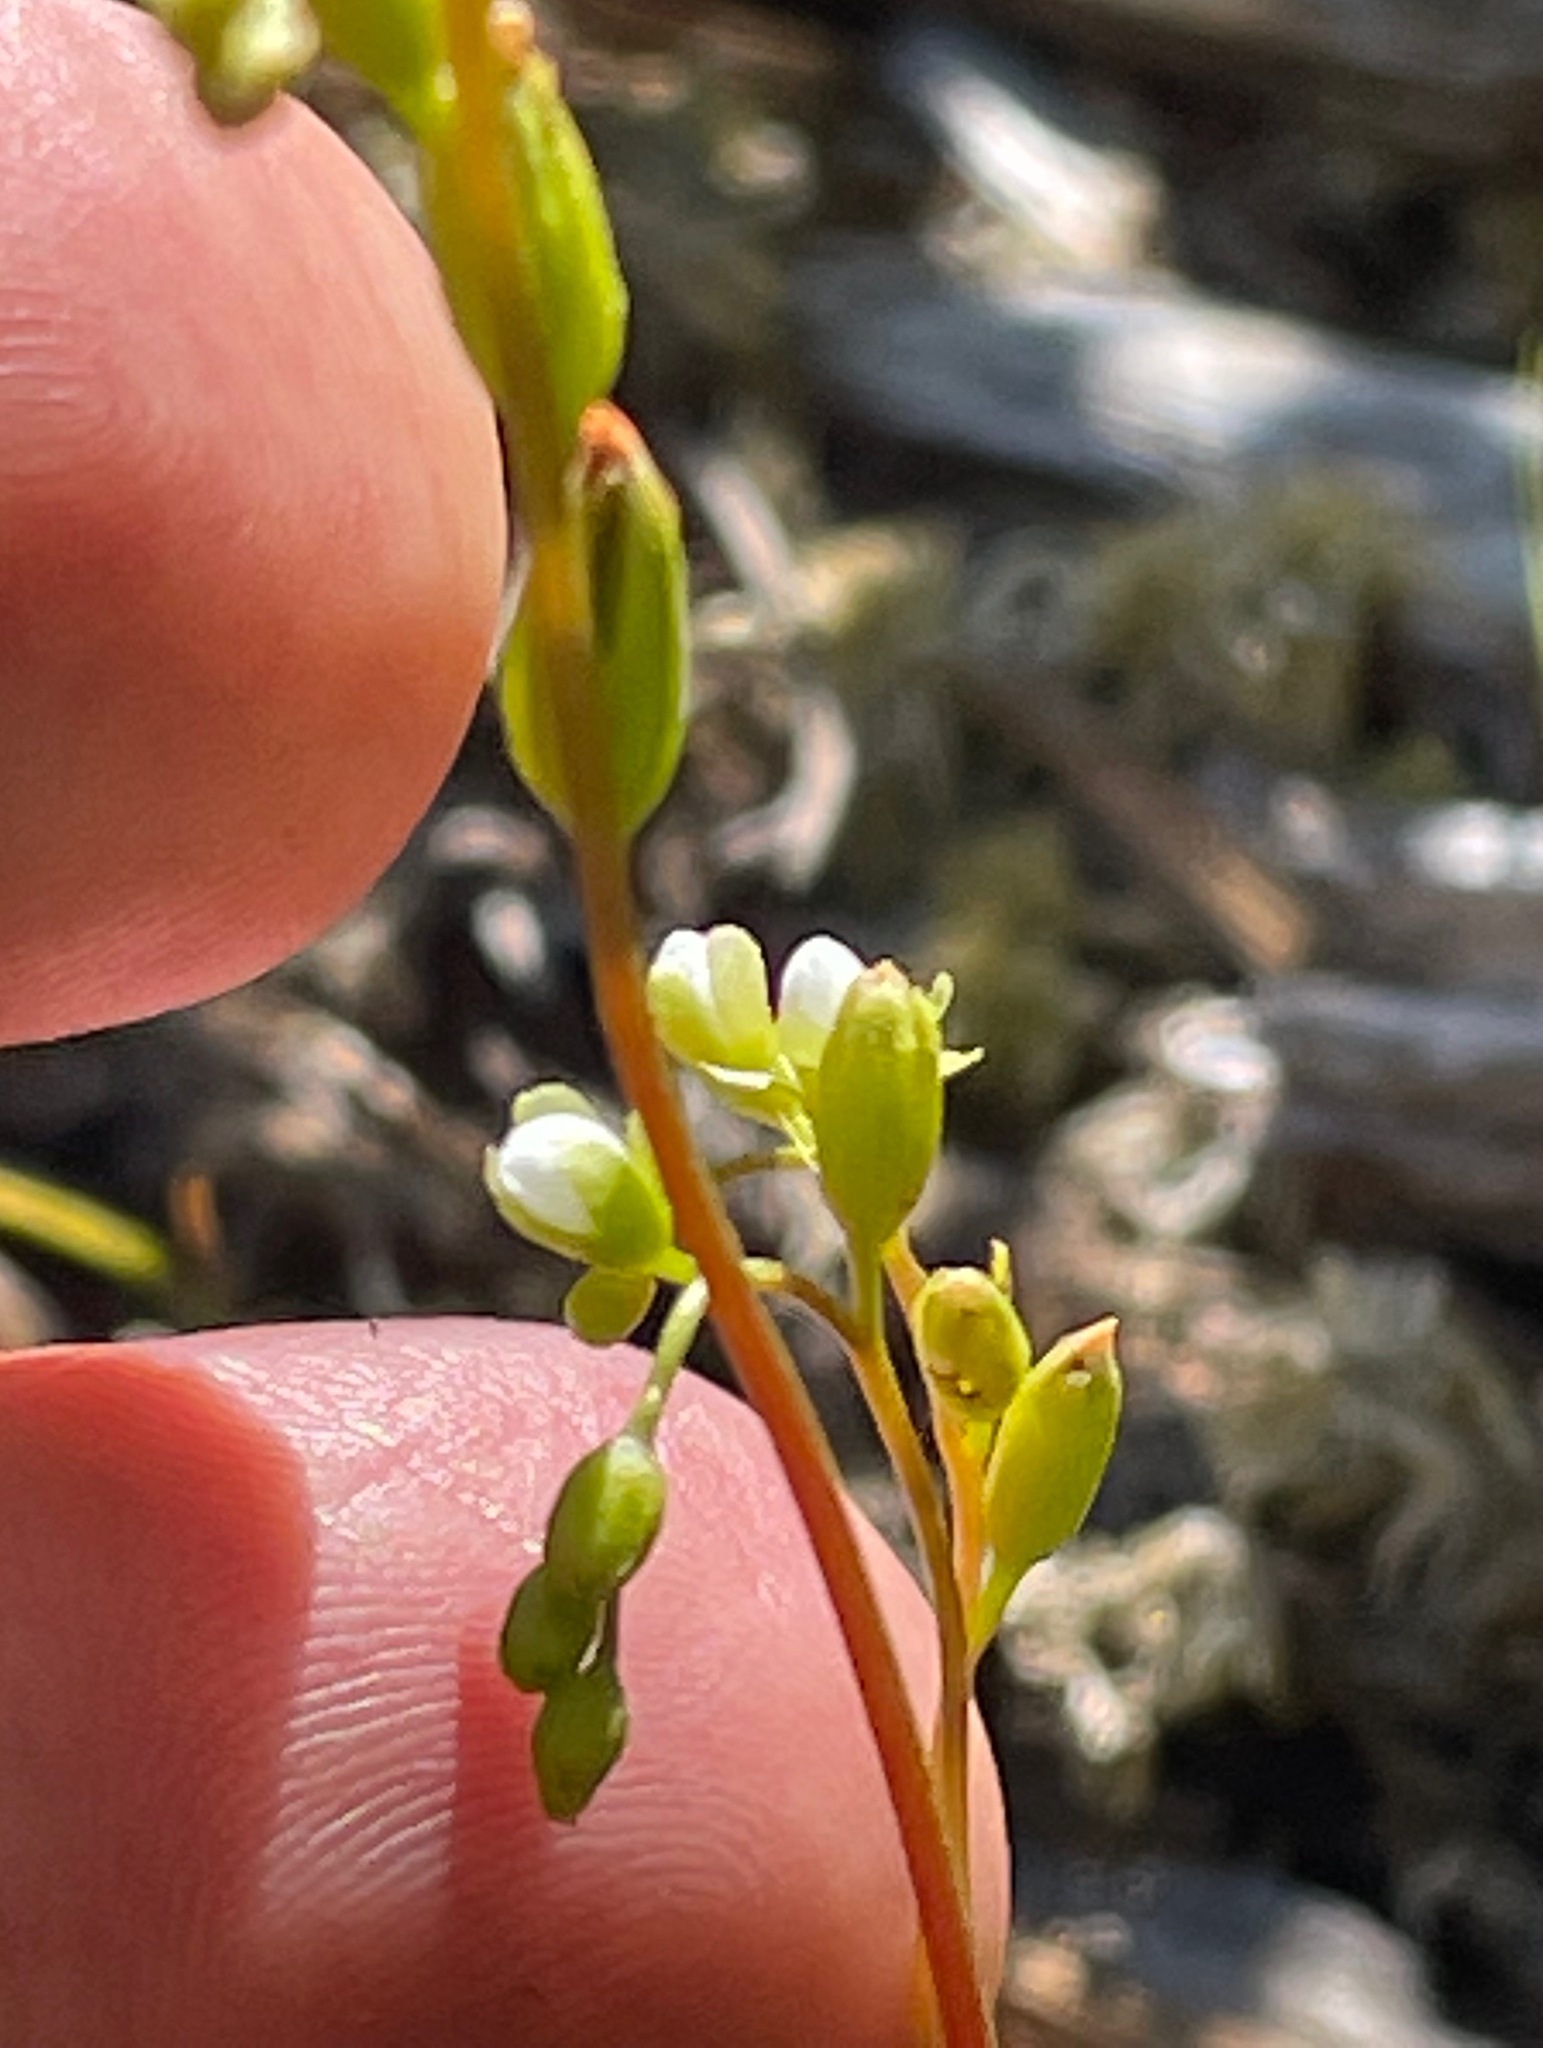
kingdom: Plantae
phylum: Tracheophyta
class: Magnoliopsida
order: Caryophyllales
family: Droseraceae
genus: Drosera
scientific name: Drosera rotundifolia
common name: Round-leaved sundew
